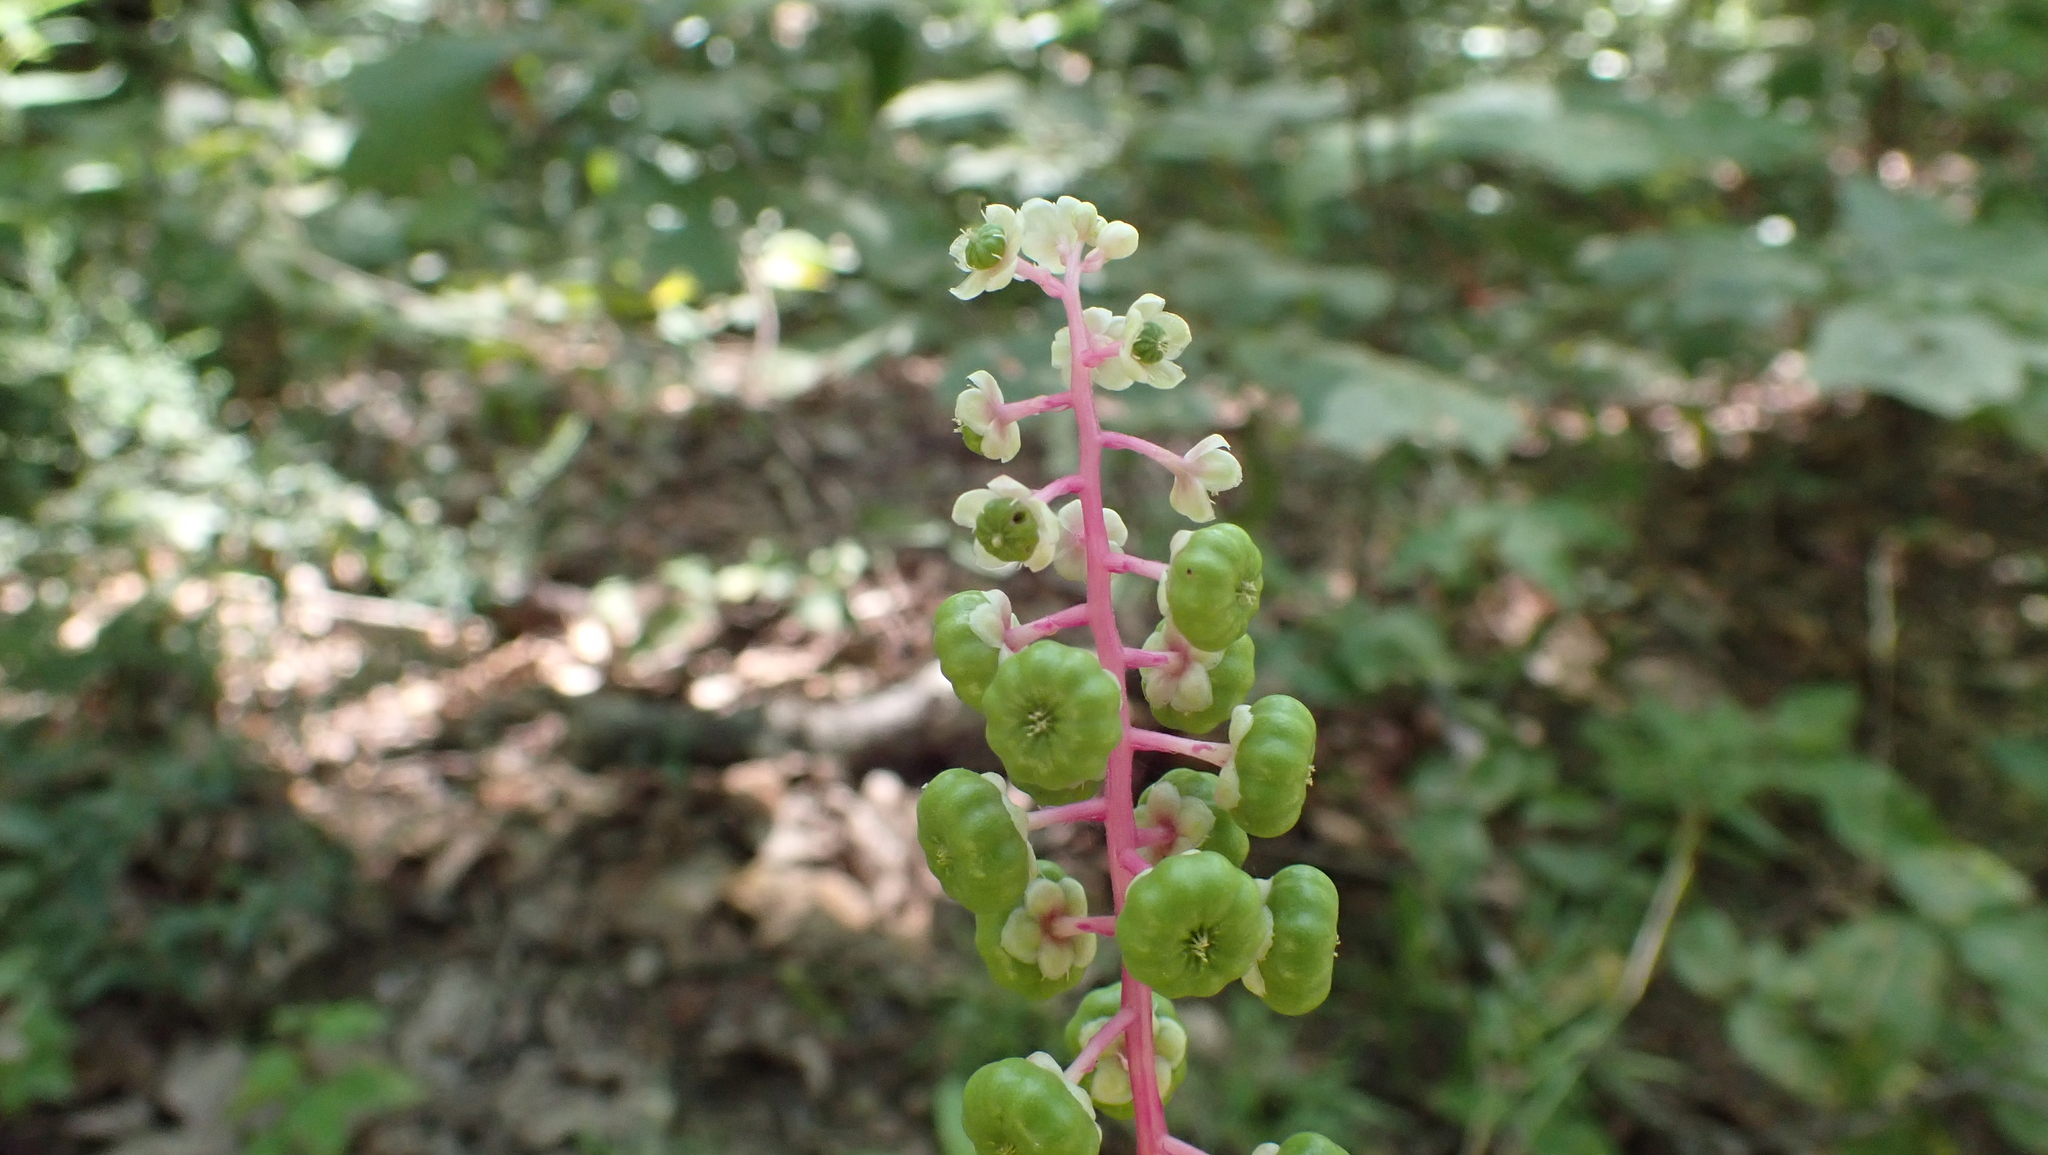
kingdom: Plantae
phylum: Tracheophyta
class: Magnoliopsida
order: Caryophyllales
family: Phytolaccaceae
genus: Phytolacca
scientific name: Phytolacca americana
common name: American pokeweed
